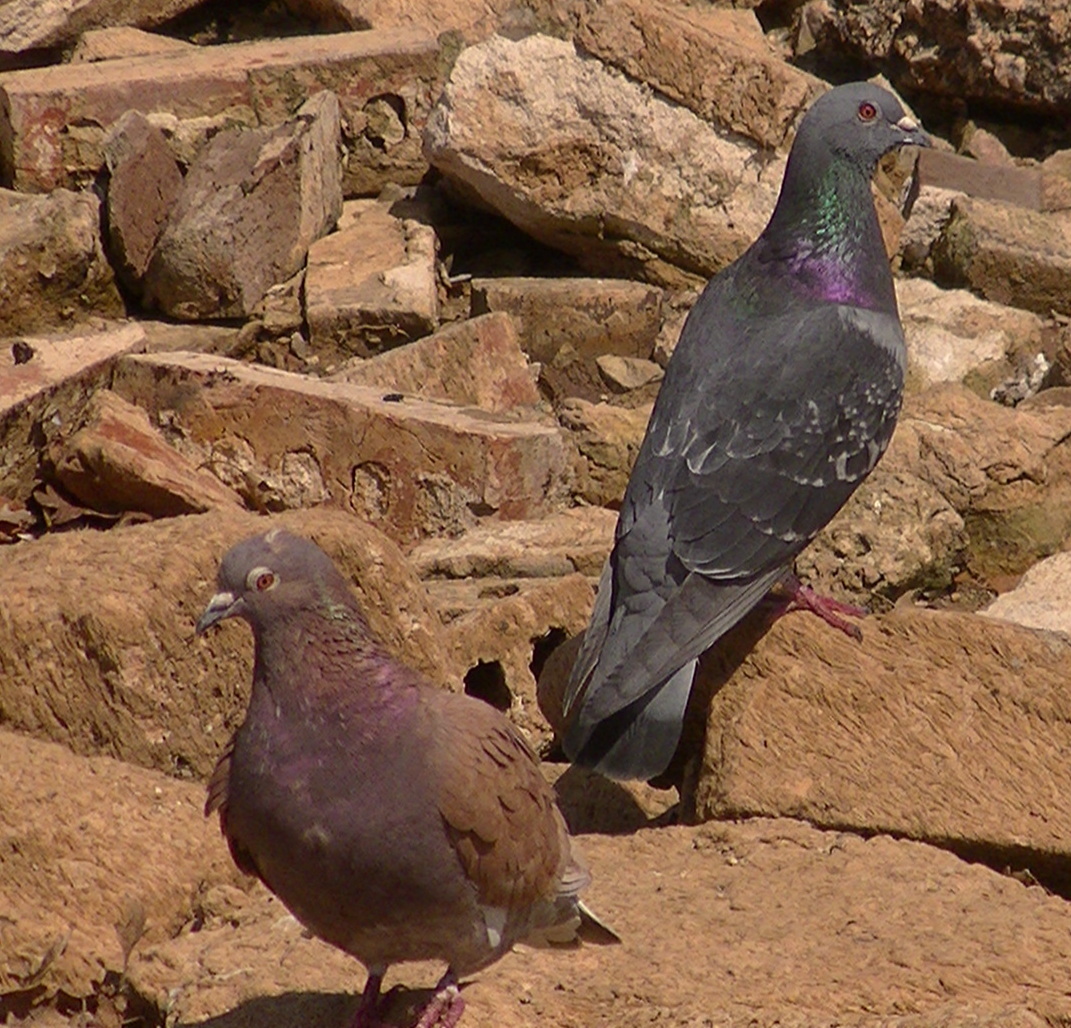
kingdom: Animalia
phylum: Chordata
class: Aves
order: Columbiformes
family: Columbidae
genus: Columba
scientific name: Columba livia
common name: Rock pigeon
